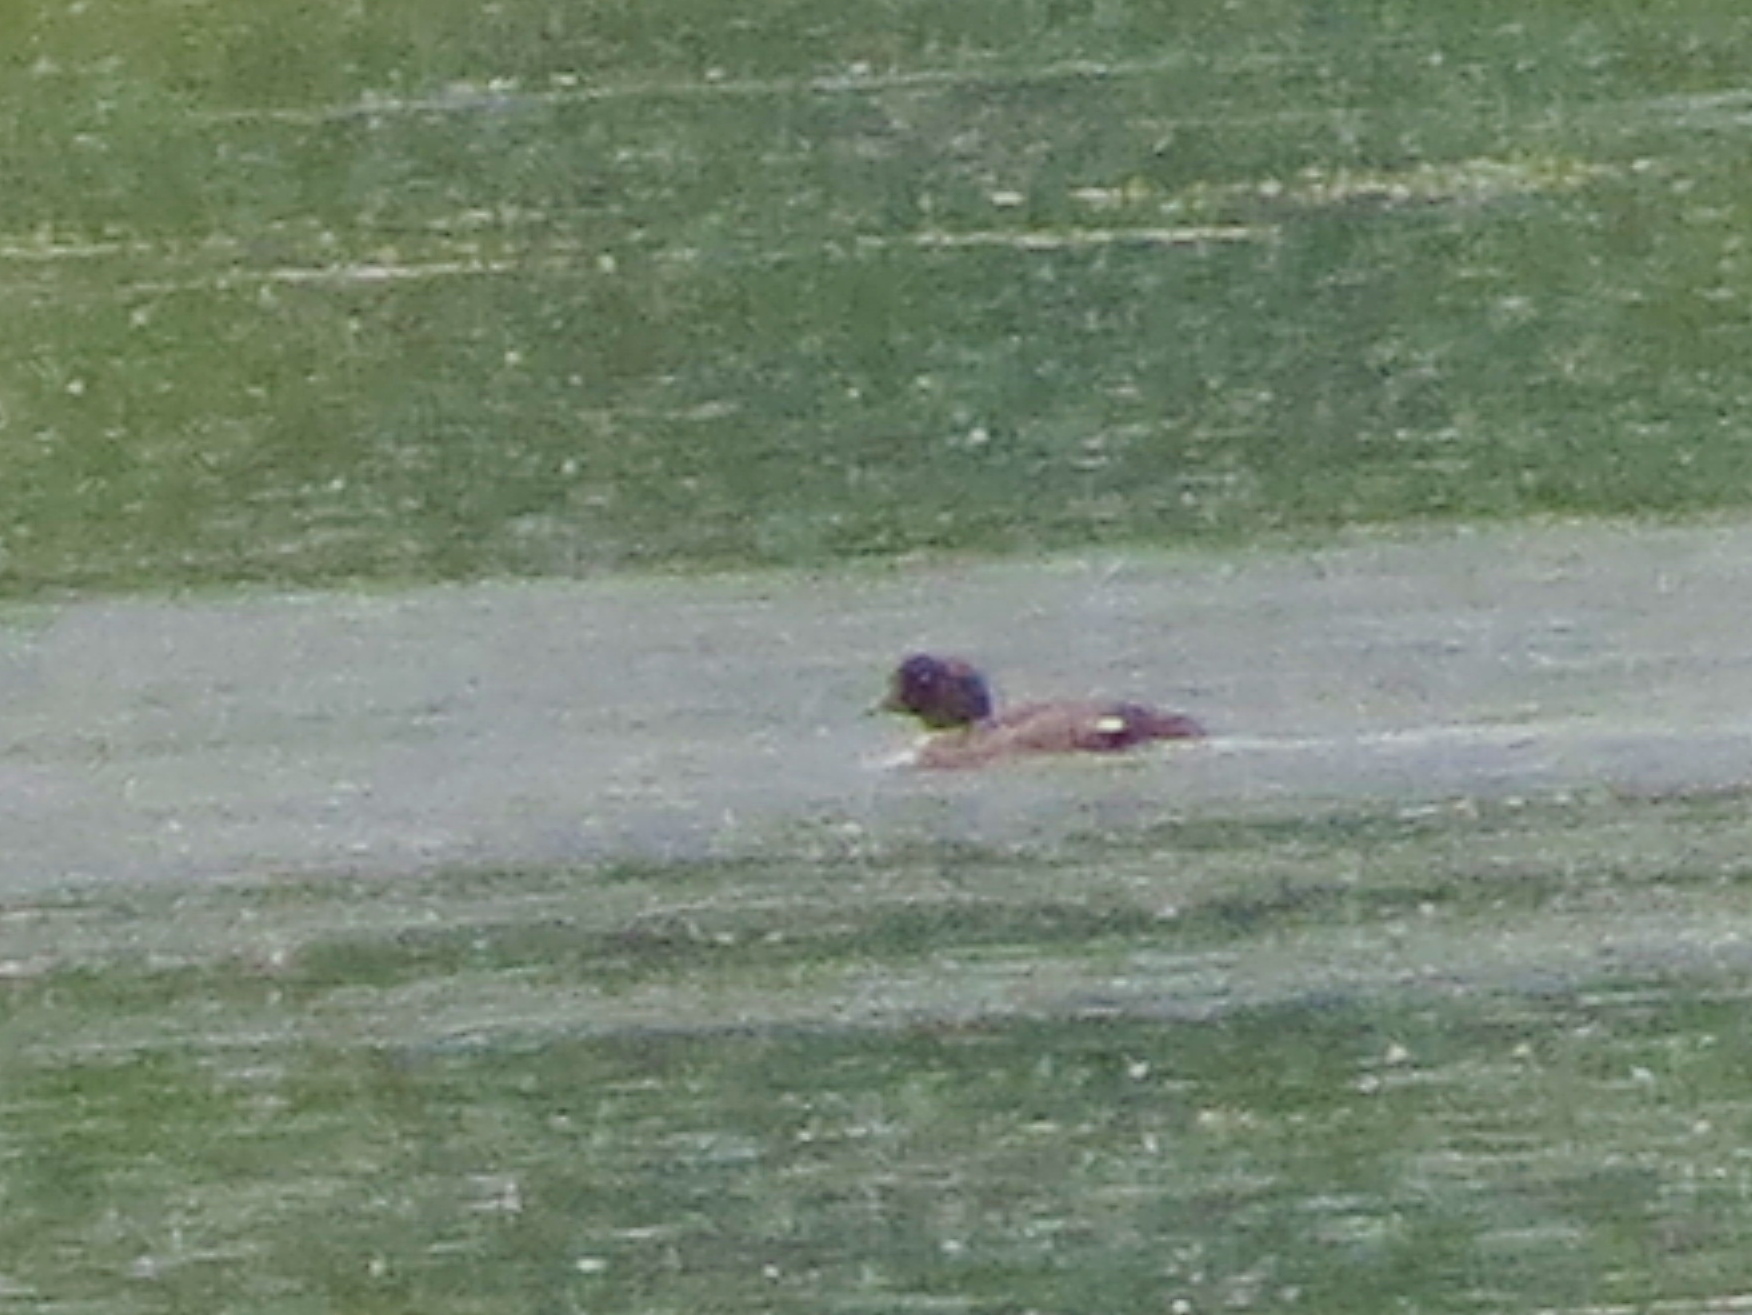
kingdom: Animalia
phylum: Chordata
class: Aves
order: Anseriformes
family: Anatidae
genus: Bucephala
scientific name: Bucephala islandica
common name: Barrow's goldeneye
